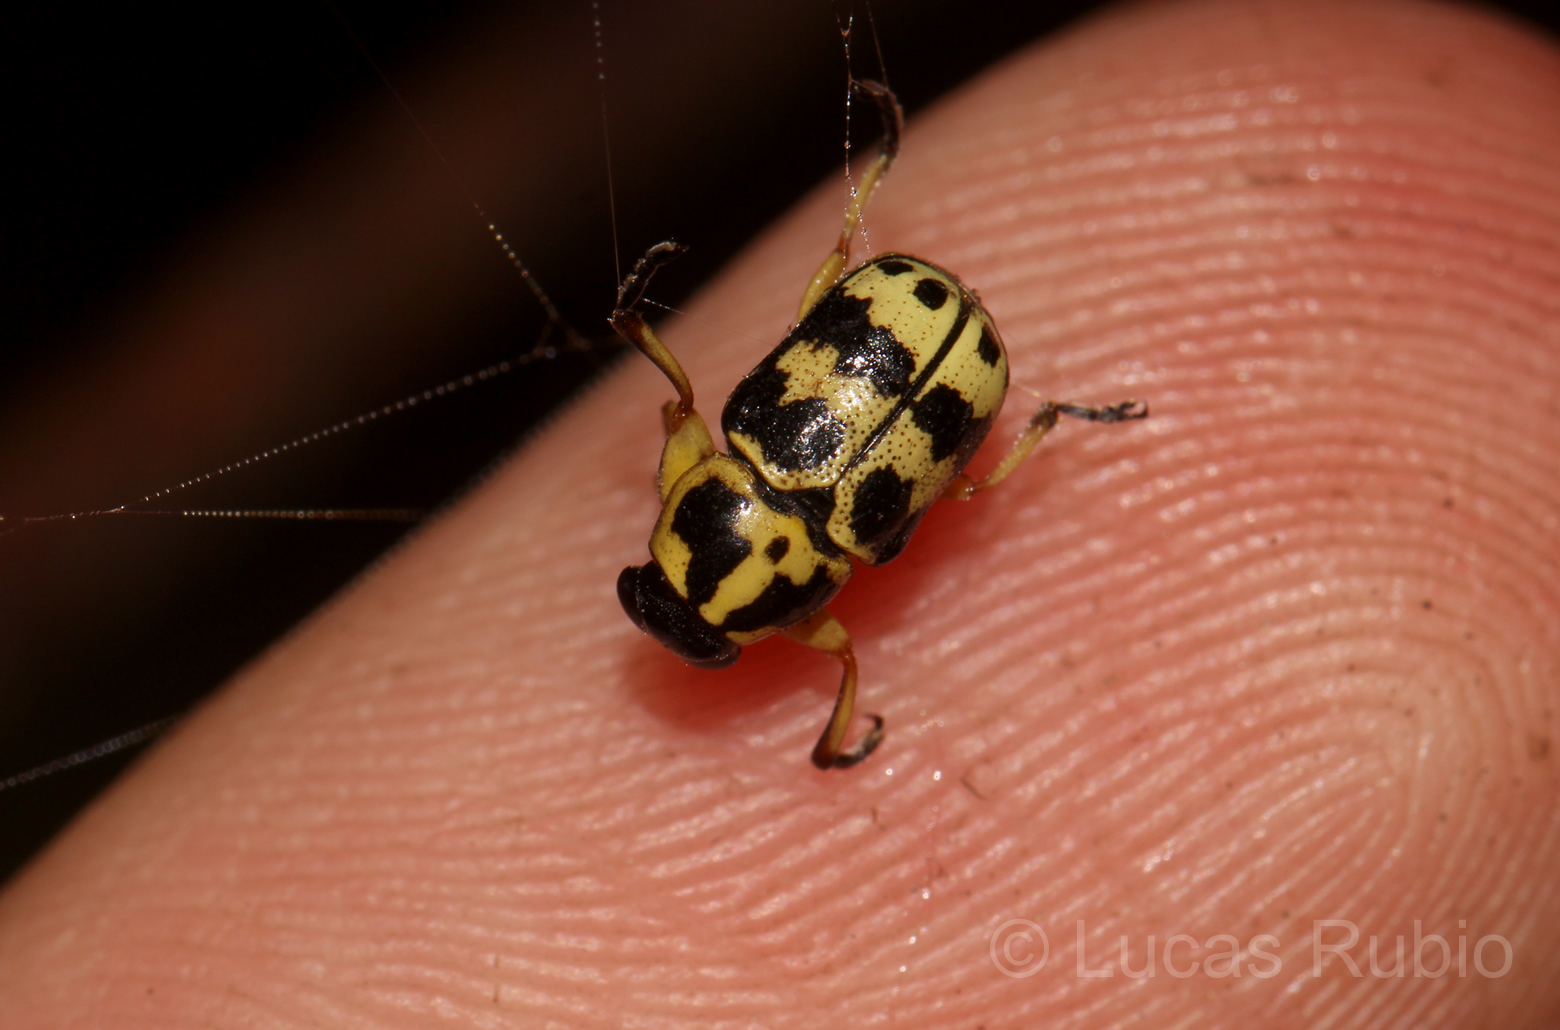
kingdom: Animalia
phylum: Arthropoda
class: Insecta
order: Coleoptera
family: Chrysomelidae
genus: Metallactus
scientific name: Metallactus rileyi
